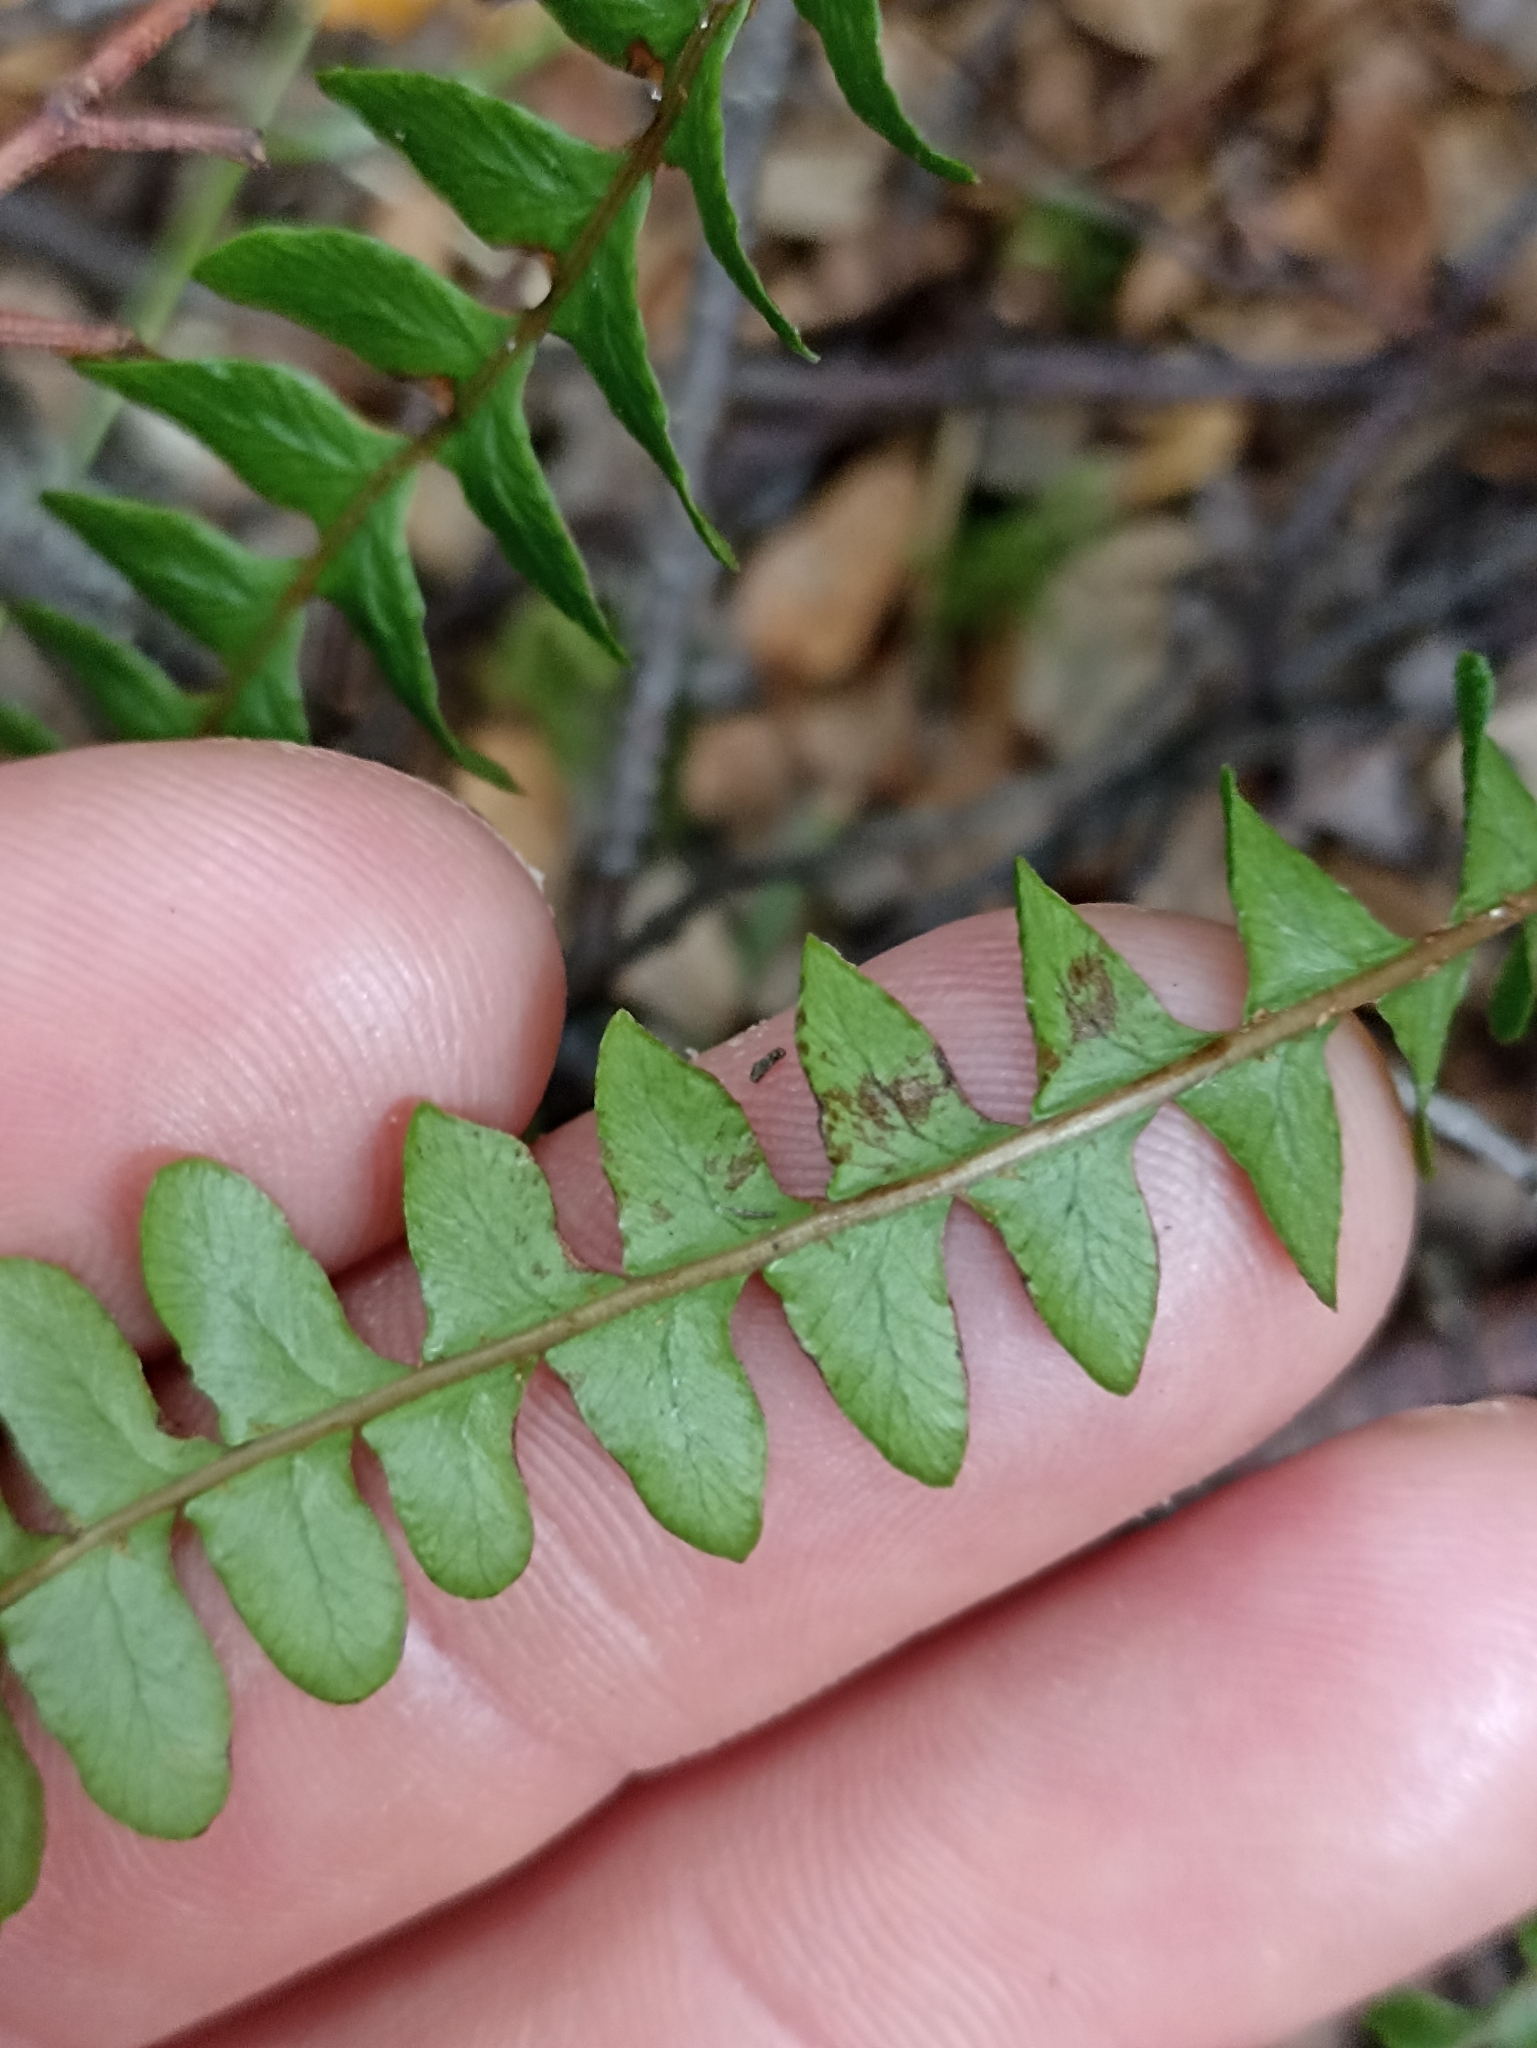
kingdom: Plantae
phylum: Tracheophyta
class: Polypodiopsida
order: Polypodiales
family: Blechnaceae
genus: Austroblechnum
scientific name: Austroblechnum penna-marina
